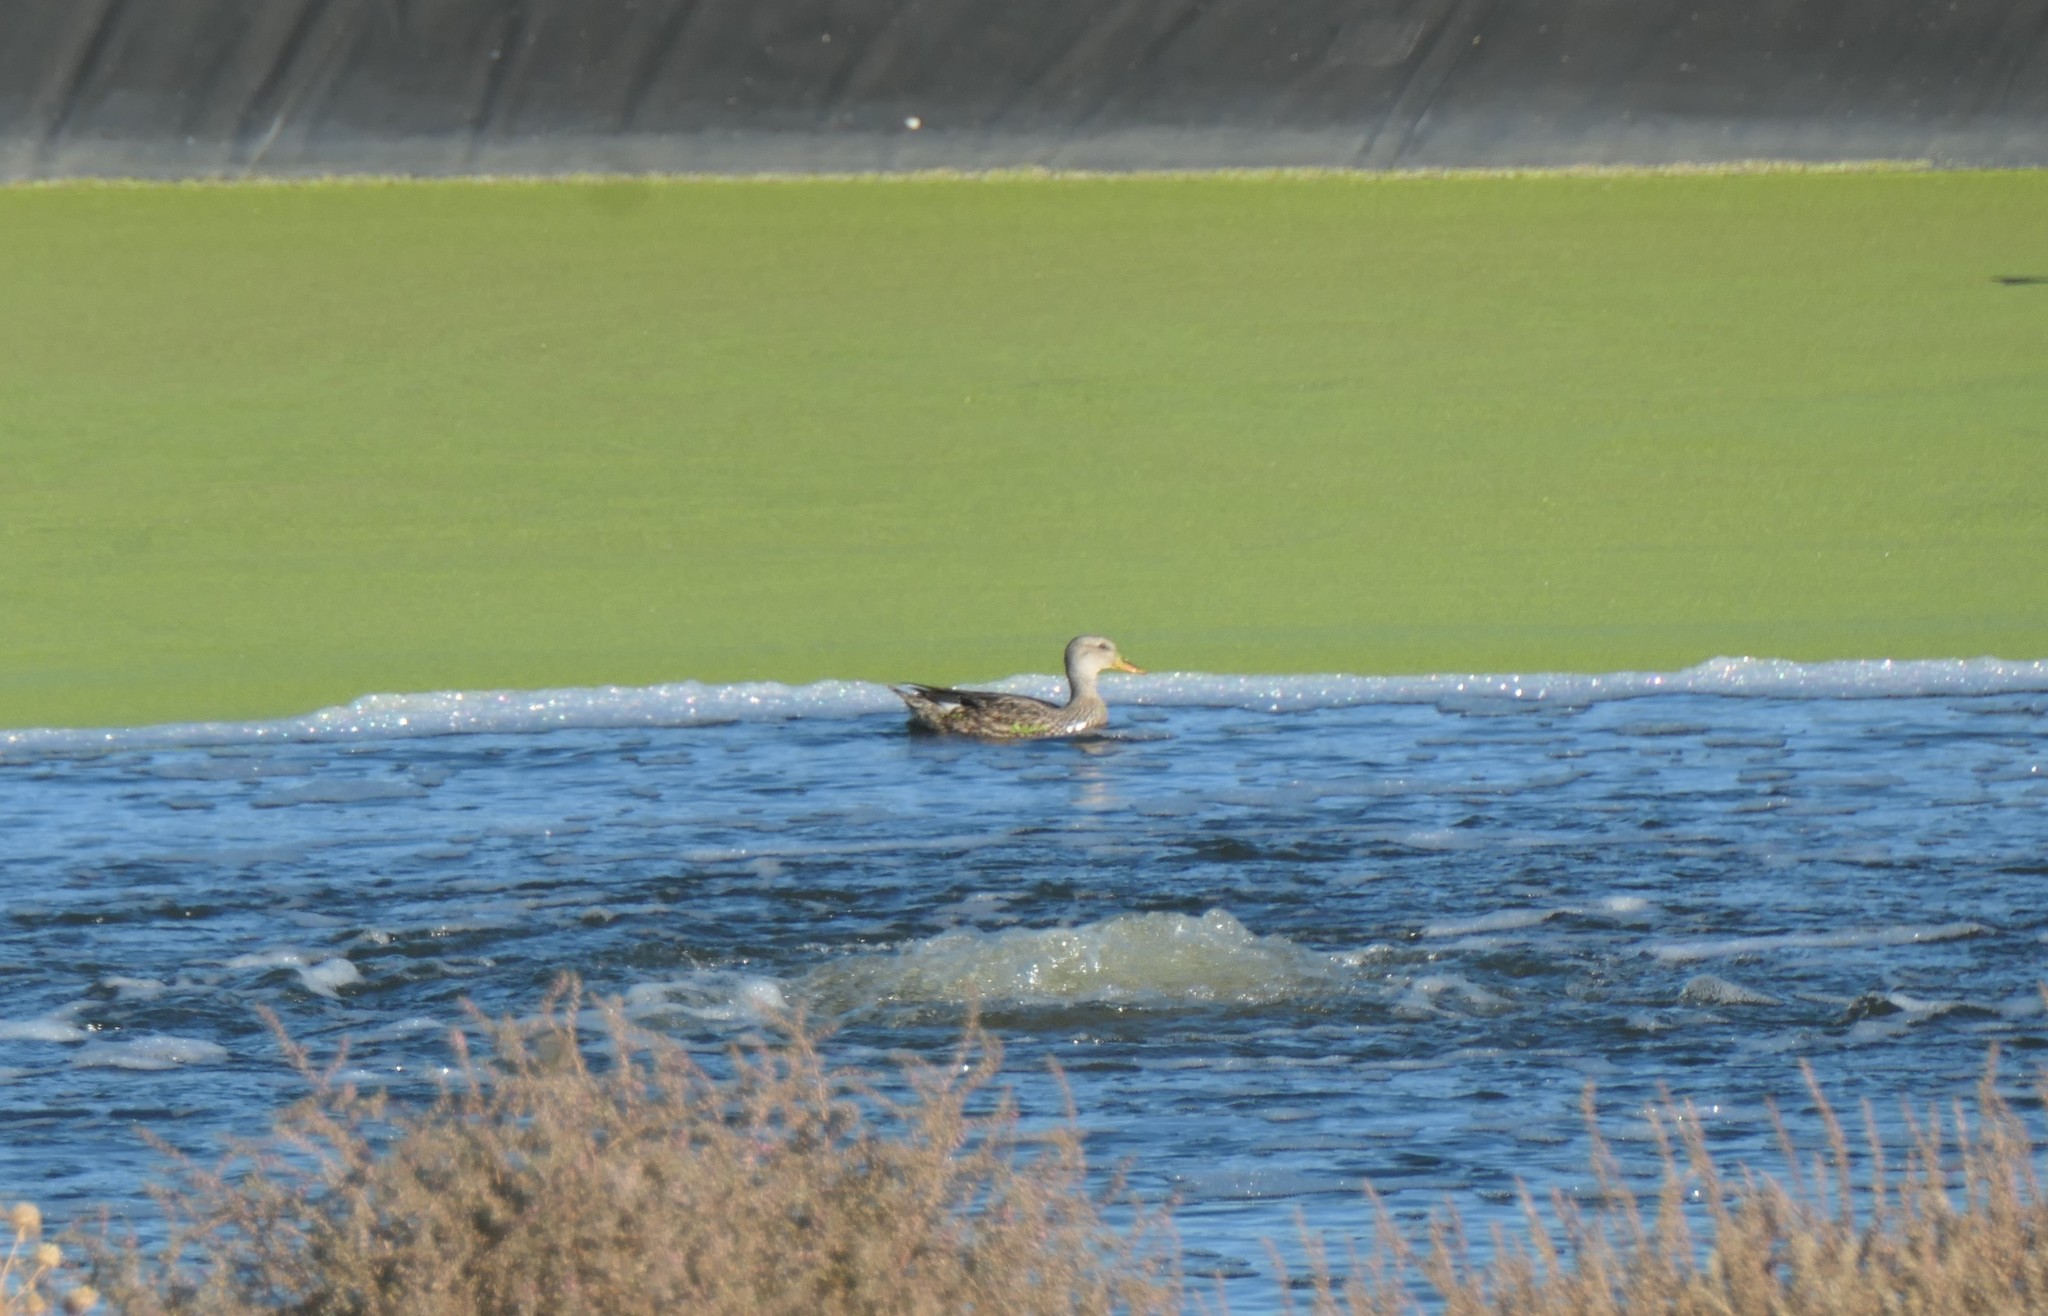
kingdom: Animalia
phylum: Chordata
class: Aves
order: Anseriformes
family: Anatidae
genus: Mareca
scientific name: Mareca strepera
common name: Gadwall
